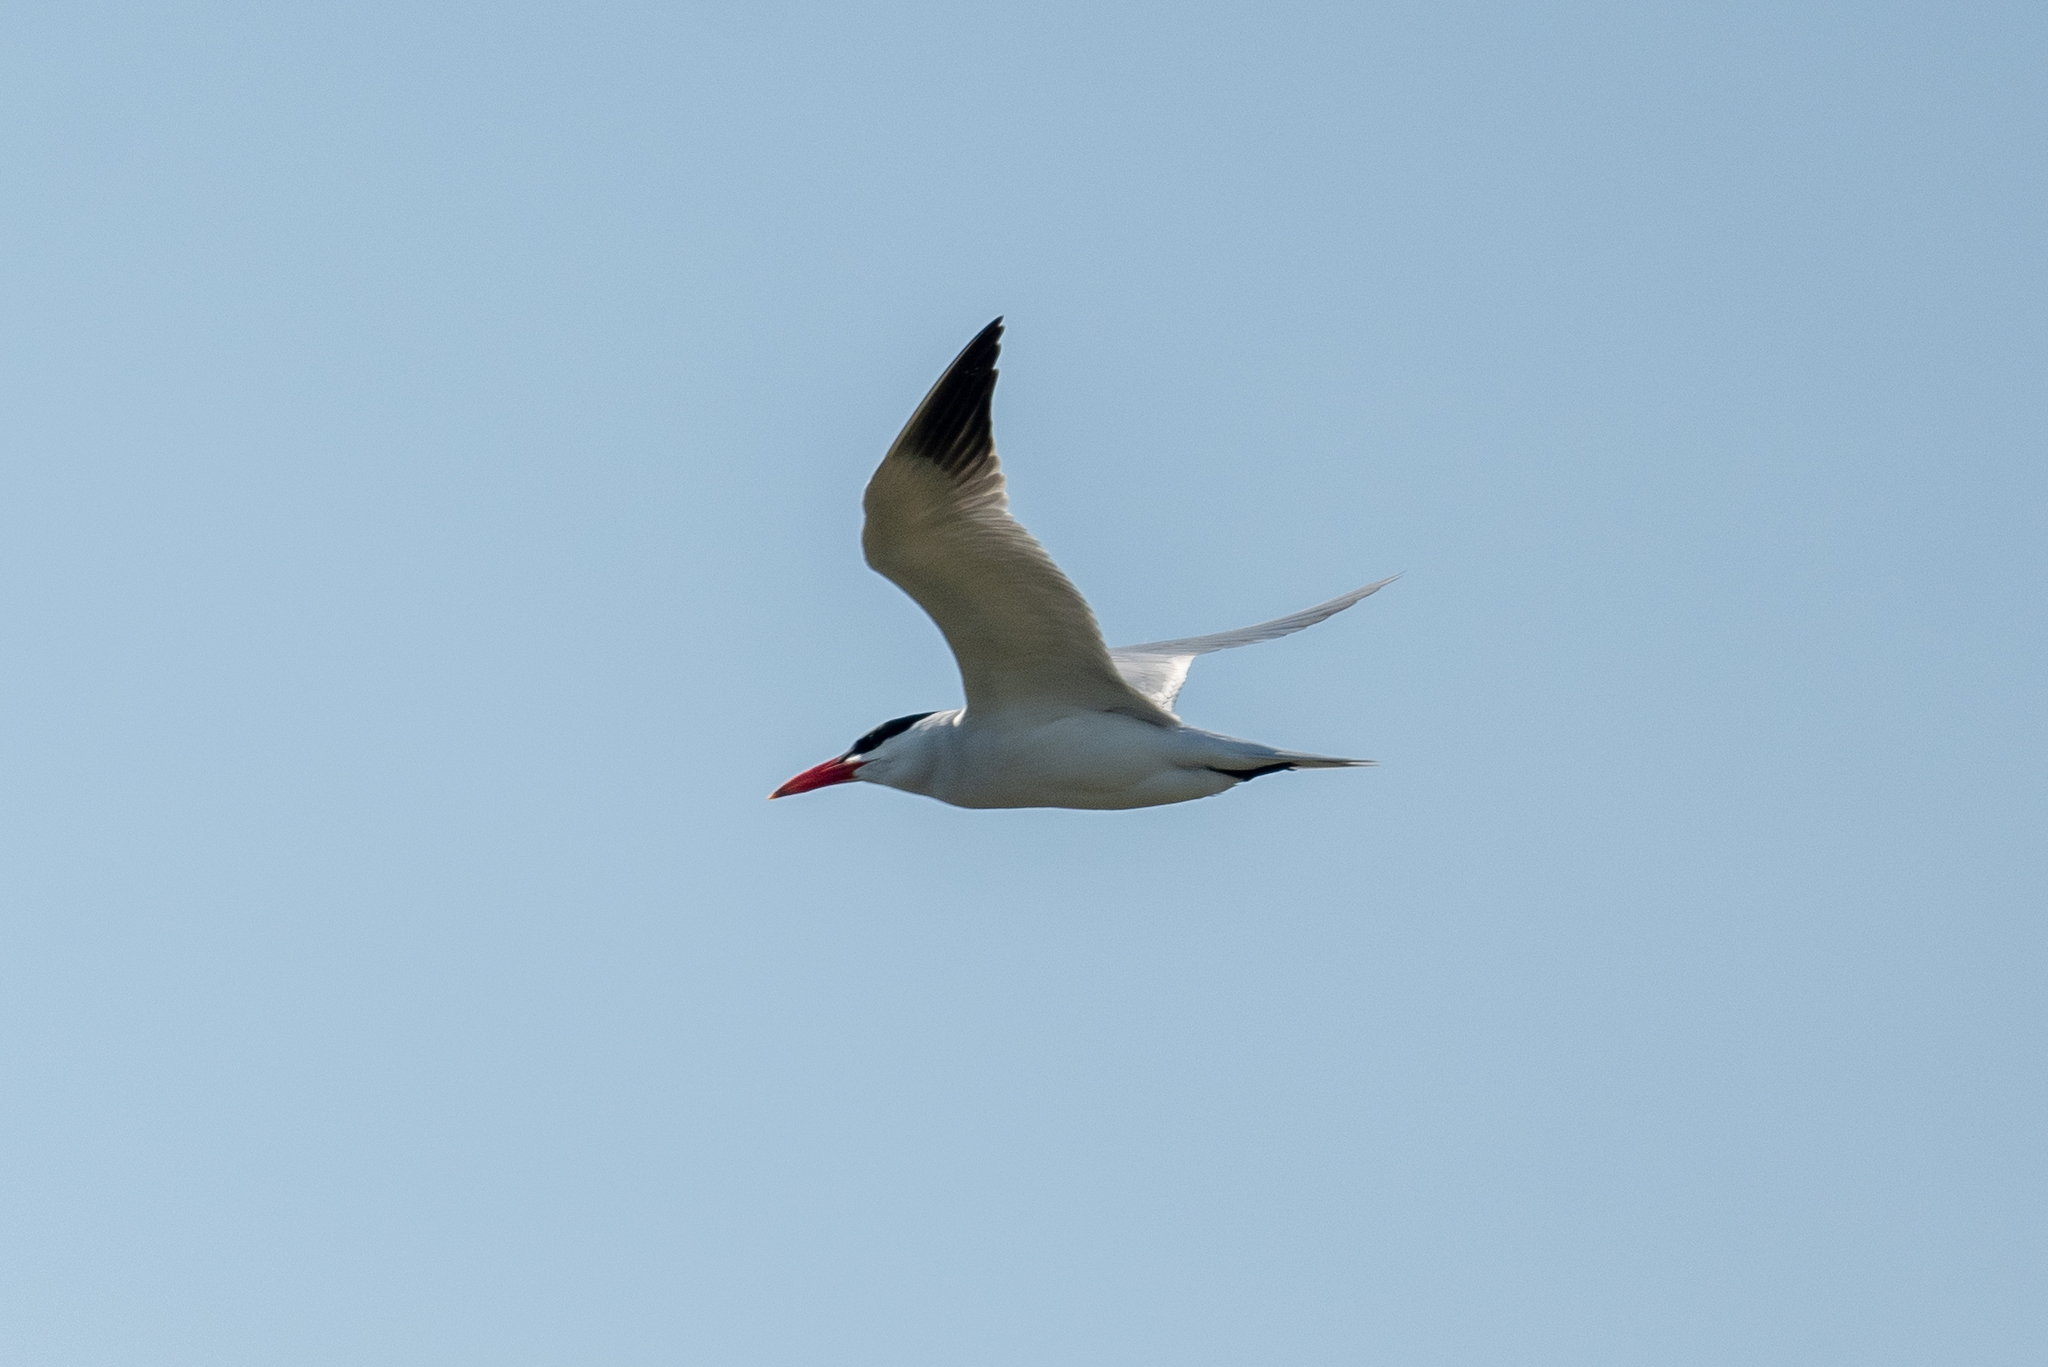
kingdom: Animalia
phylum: Chordata
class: Aves
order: Charadriiformes
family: Laridae
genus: Hydroprogne
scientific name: Hydroprogne caspia
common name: Caspian tern
